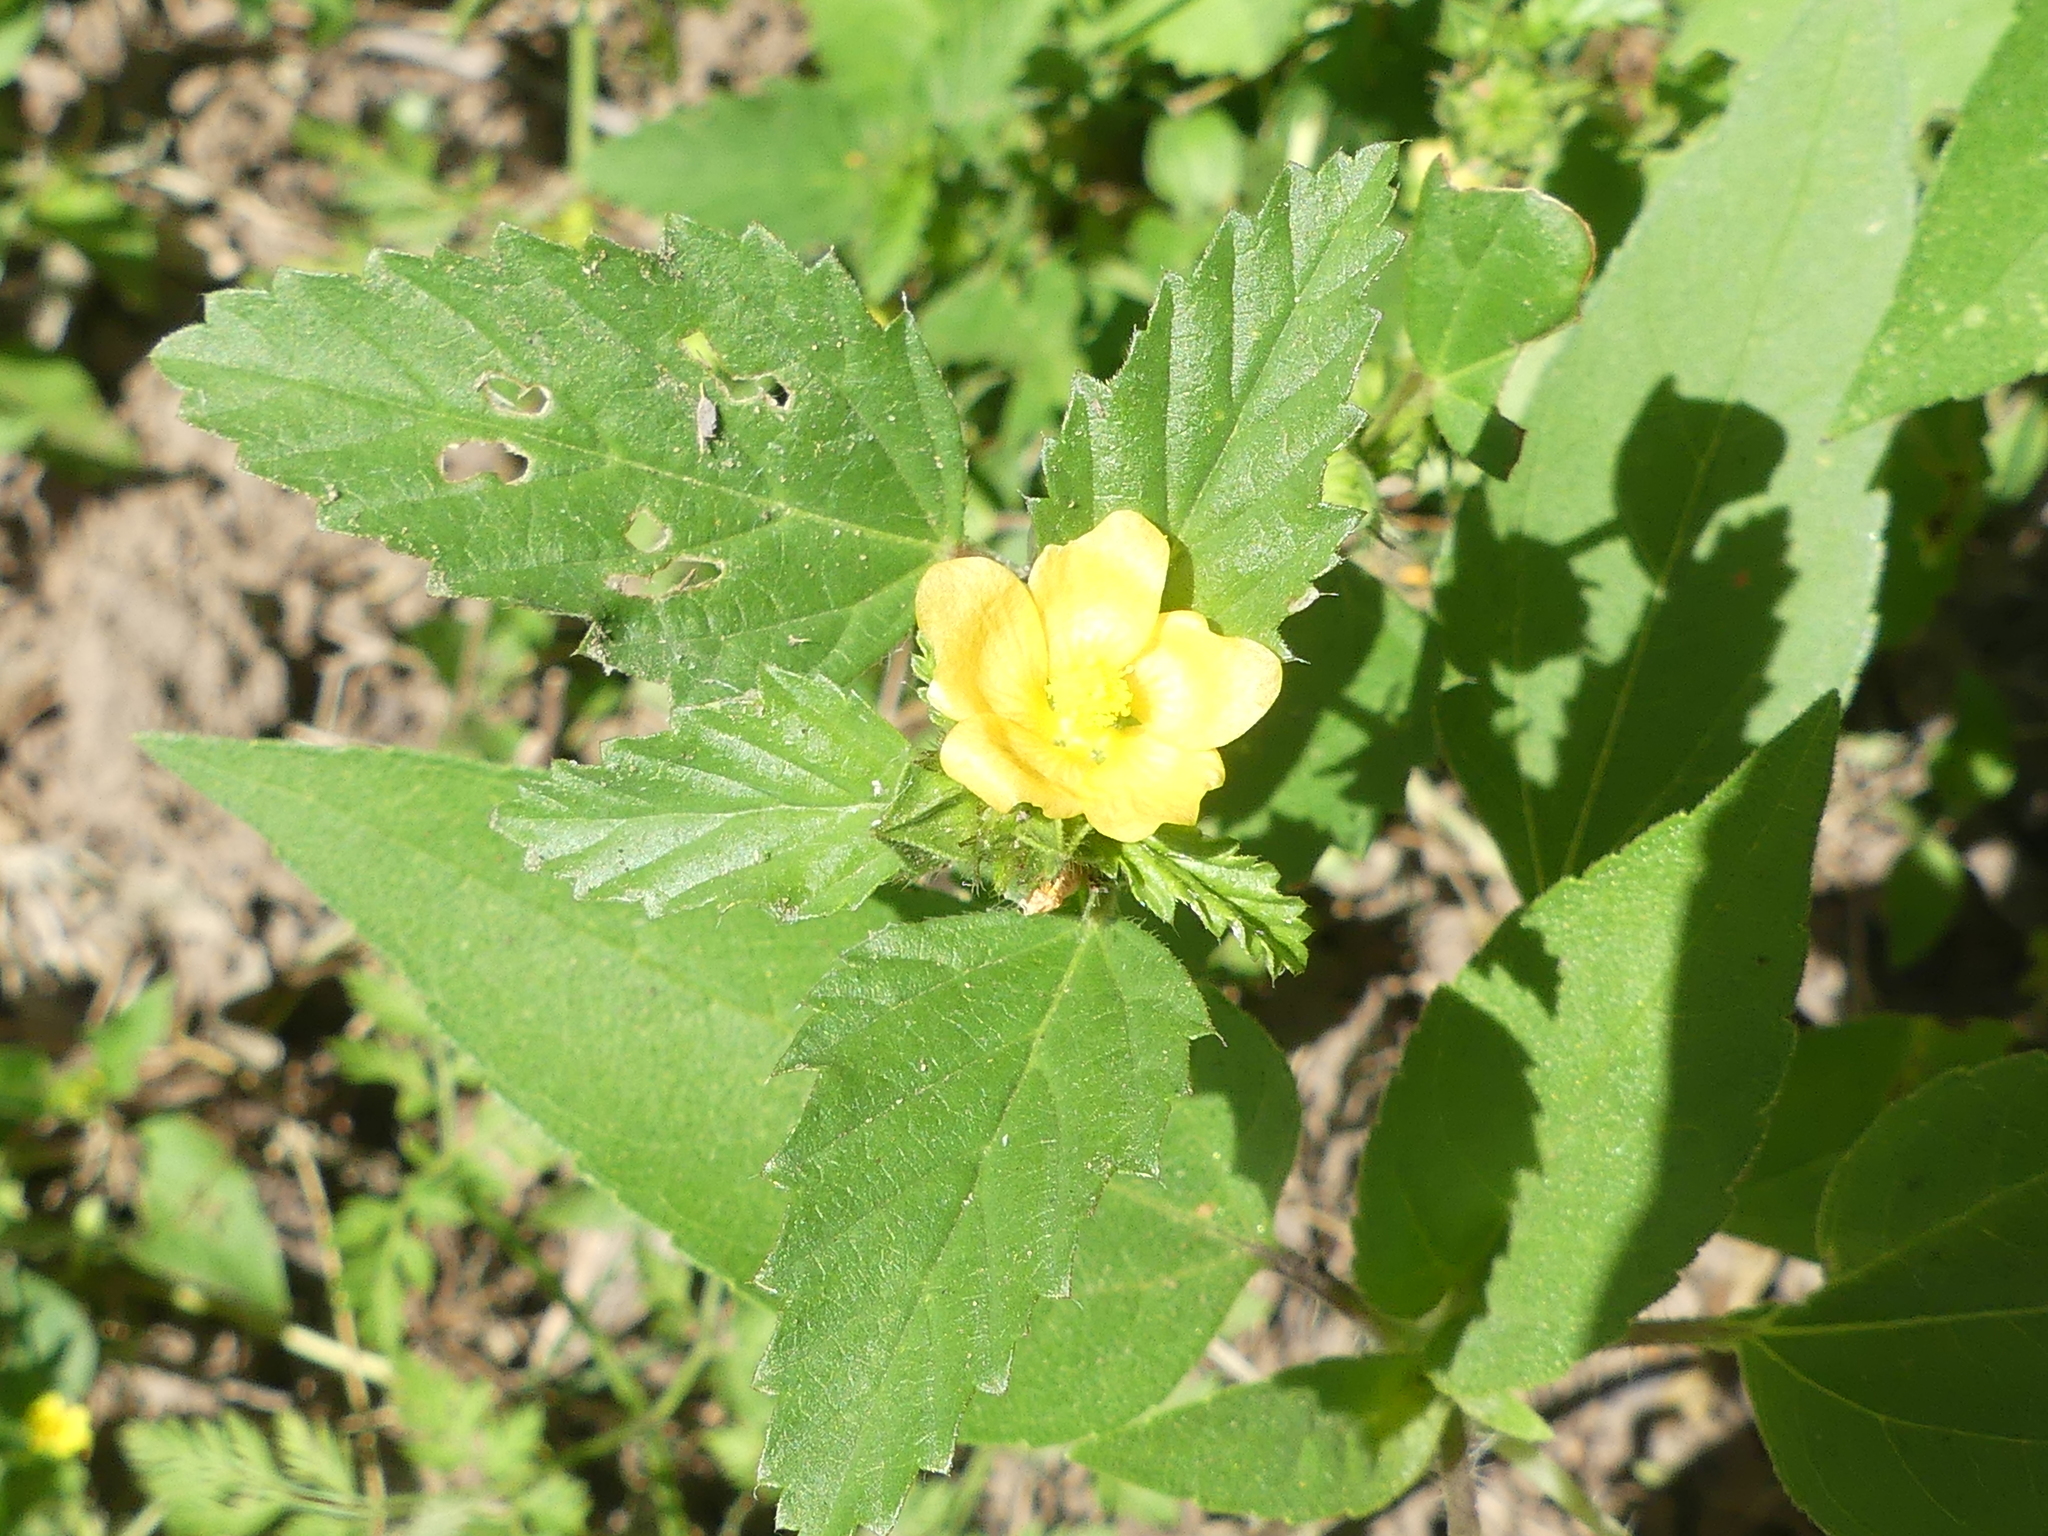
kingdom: Plantae
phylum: Tracheophyta
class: Magnoliopsida
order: Malvales
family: Malvaceae
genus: Malvastrum
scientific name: Malvastrum coromandelianum
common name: Threelobe false mallow
